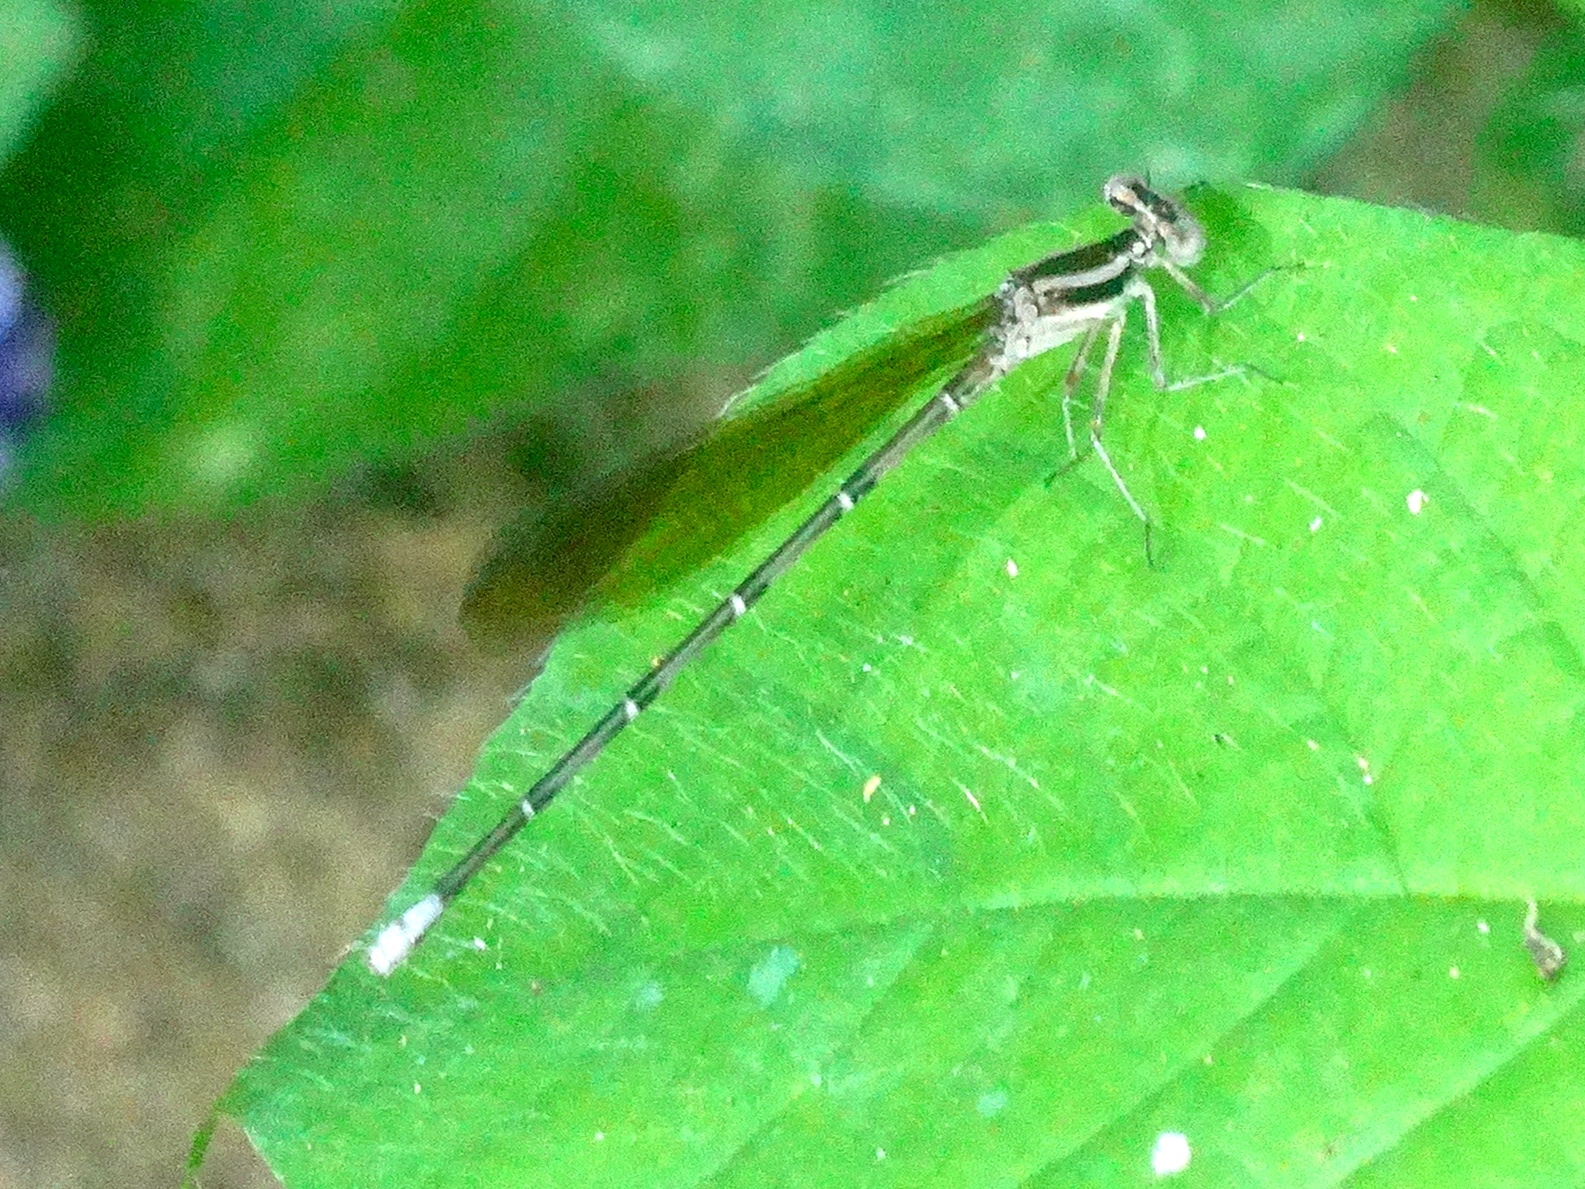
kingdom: Animalia
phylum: Arthropoda
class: Insecta
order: Odonata
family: Coenagrionidae
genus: Argia
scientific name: Argia
